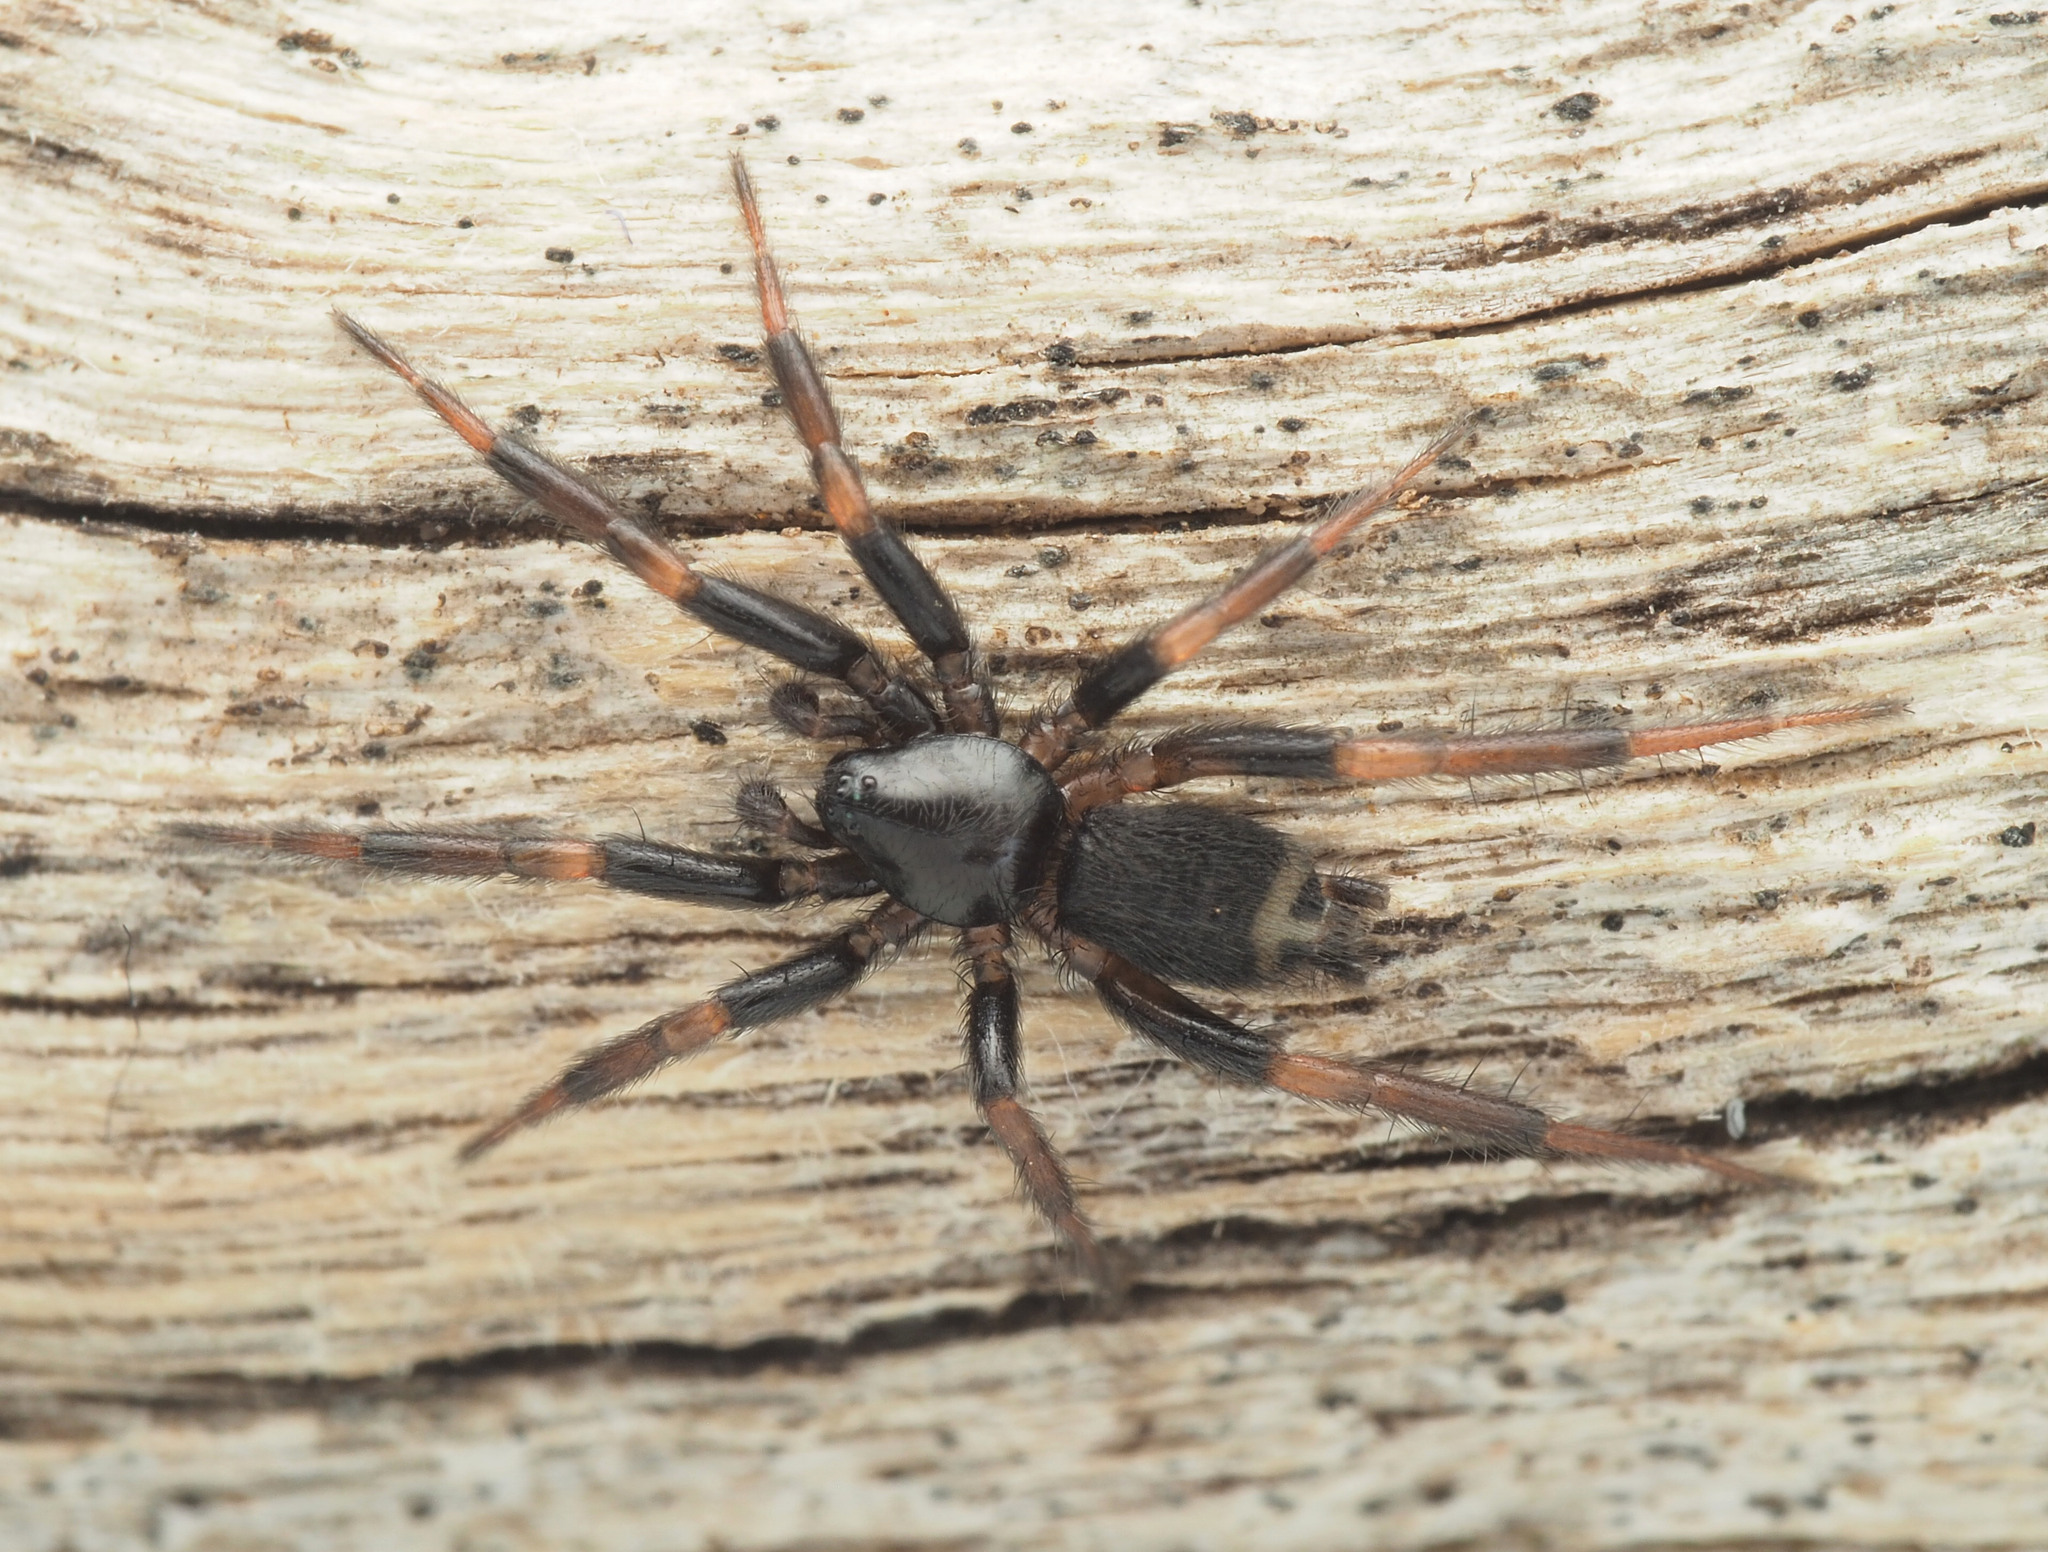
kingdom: Animalia
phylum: Arthropoda
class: Arachnida
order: Araneae
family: Gnaphosidae
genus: Eilica
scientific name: Eilica
